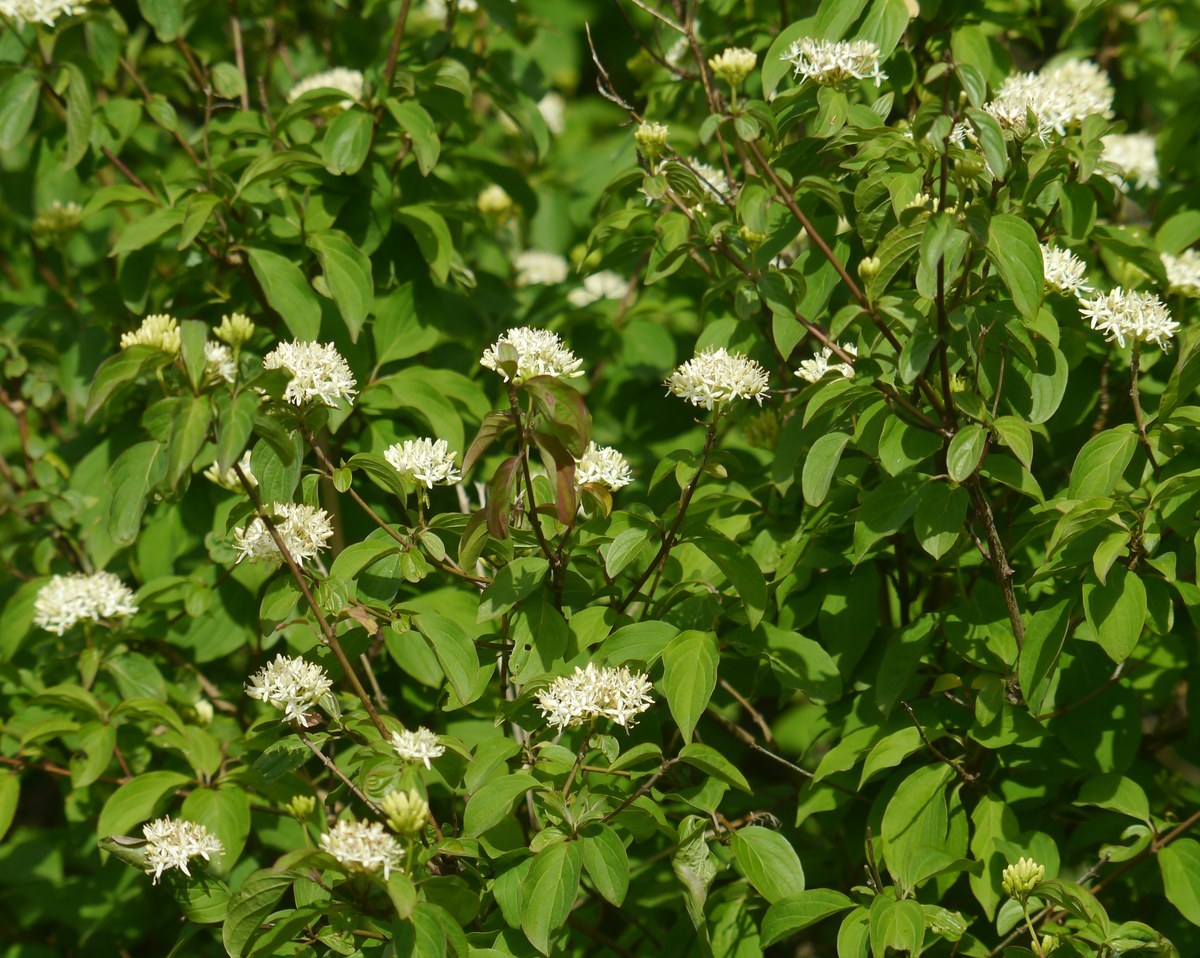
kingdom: Plantae
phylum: Tracheophyta
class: Magnoliopsida
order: Cornales
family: Cornaceae
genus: Cornus
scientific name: Cornus sanguinea
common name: Dogwood
